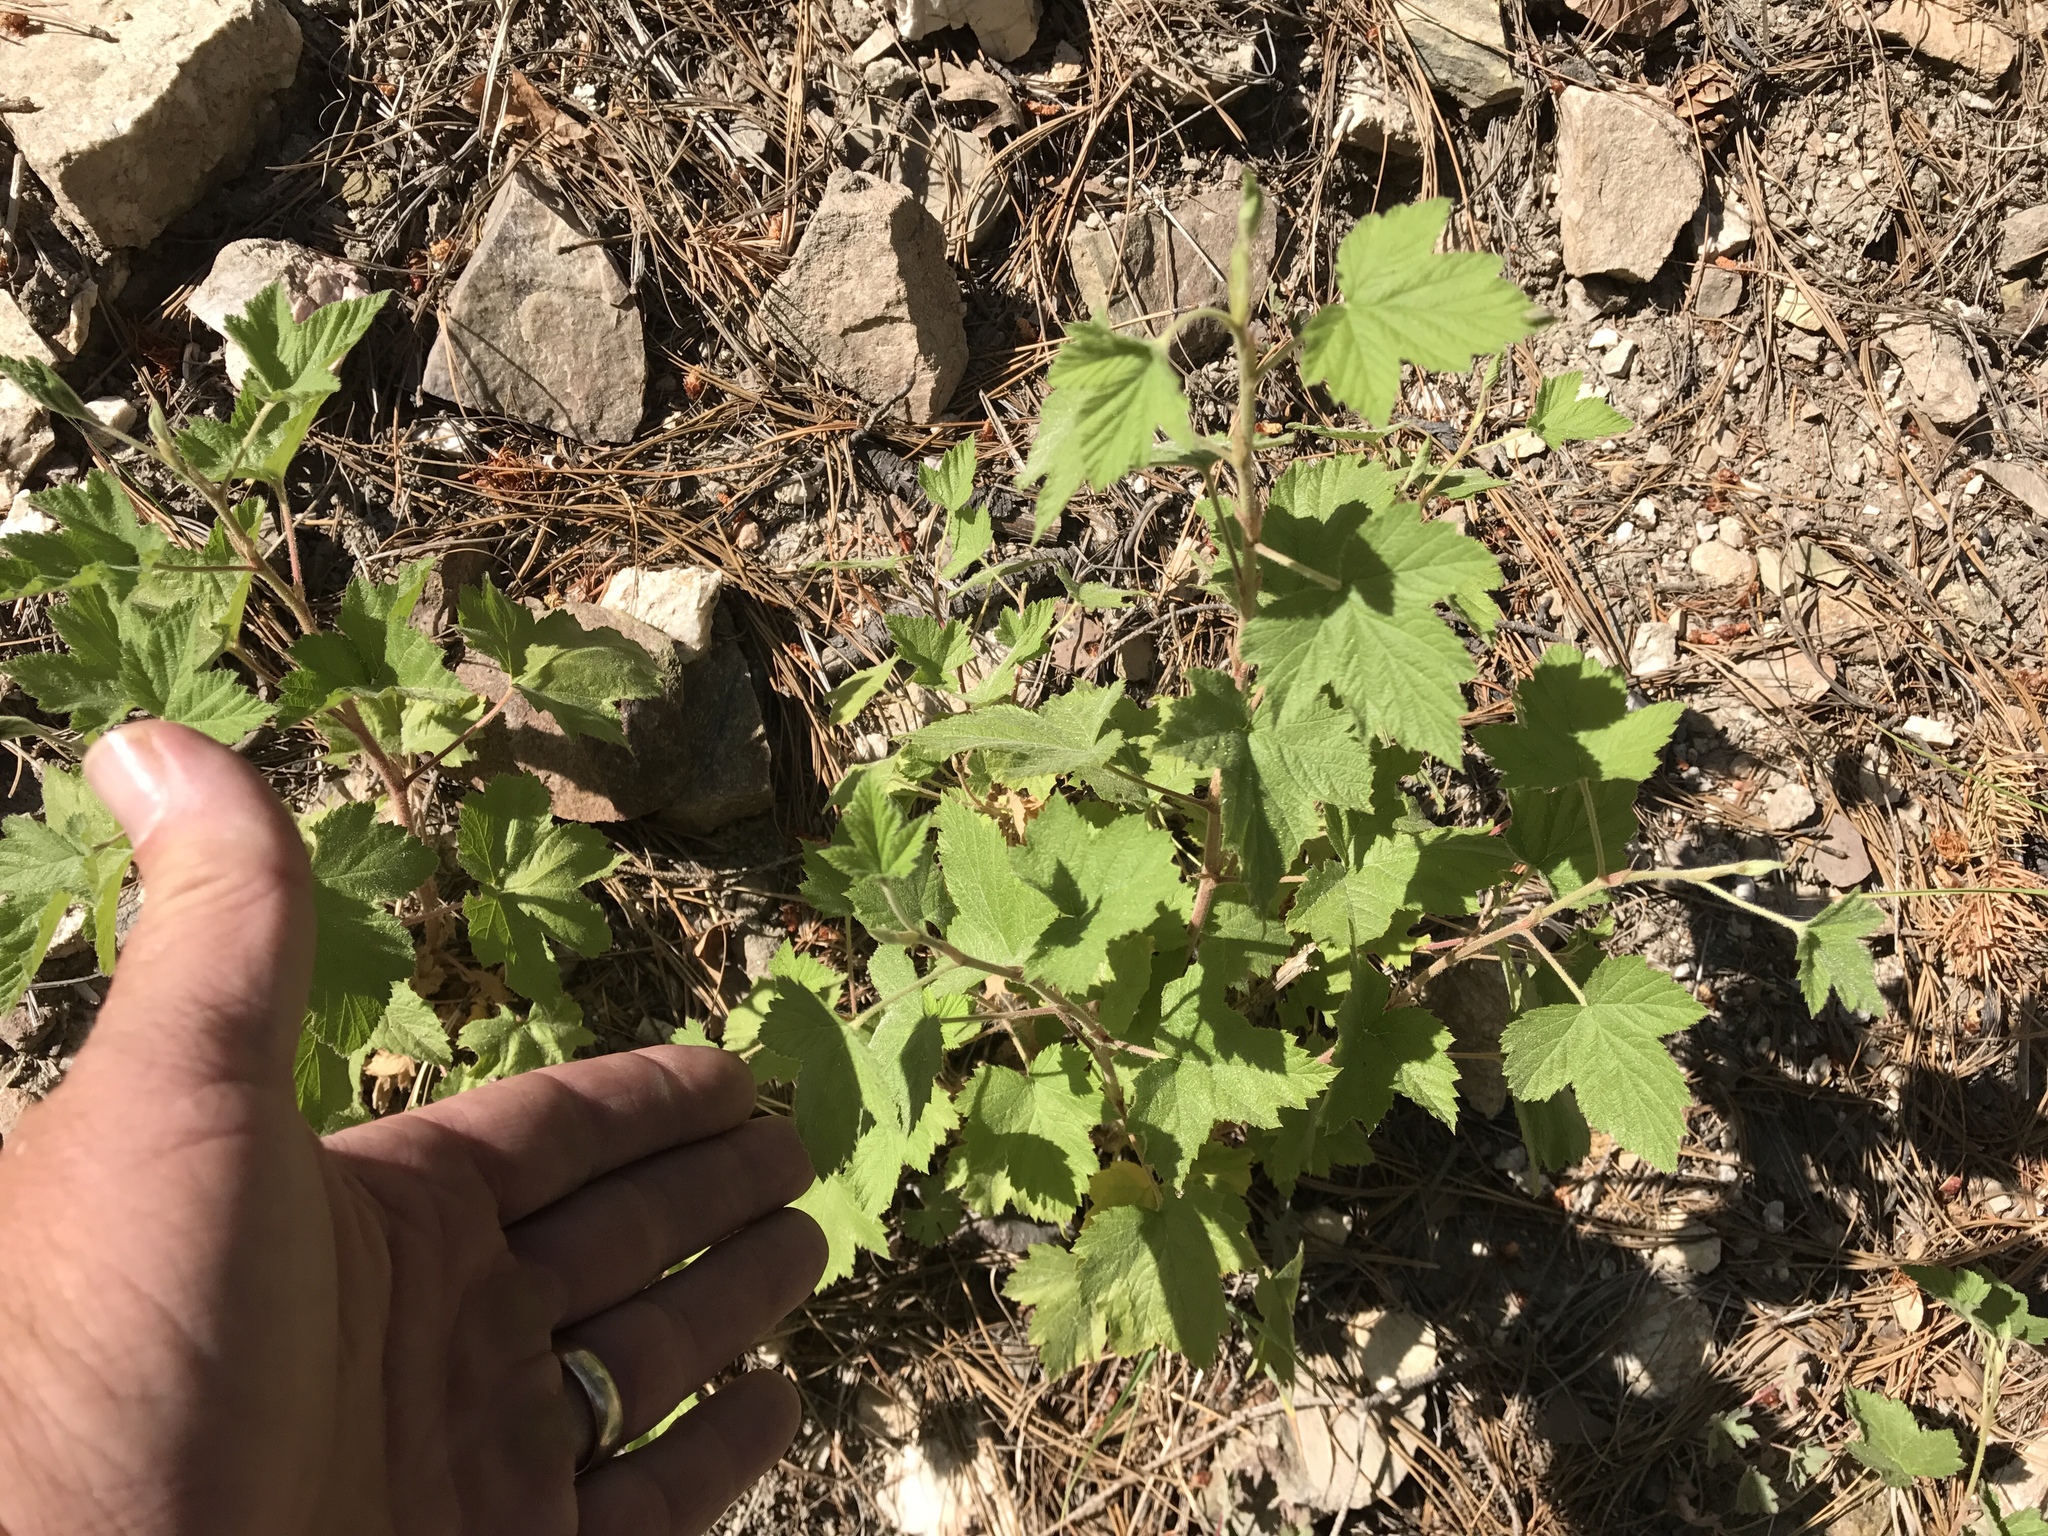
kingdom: Plantae
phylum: Tracheophyta
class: Magnoliopsida
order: Rosales
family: Rosaceae
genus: Rubus
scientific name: Rubus neomexicanus
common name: New mexico raspberry
